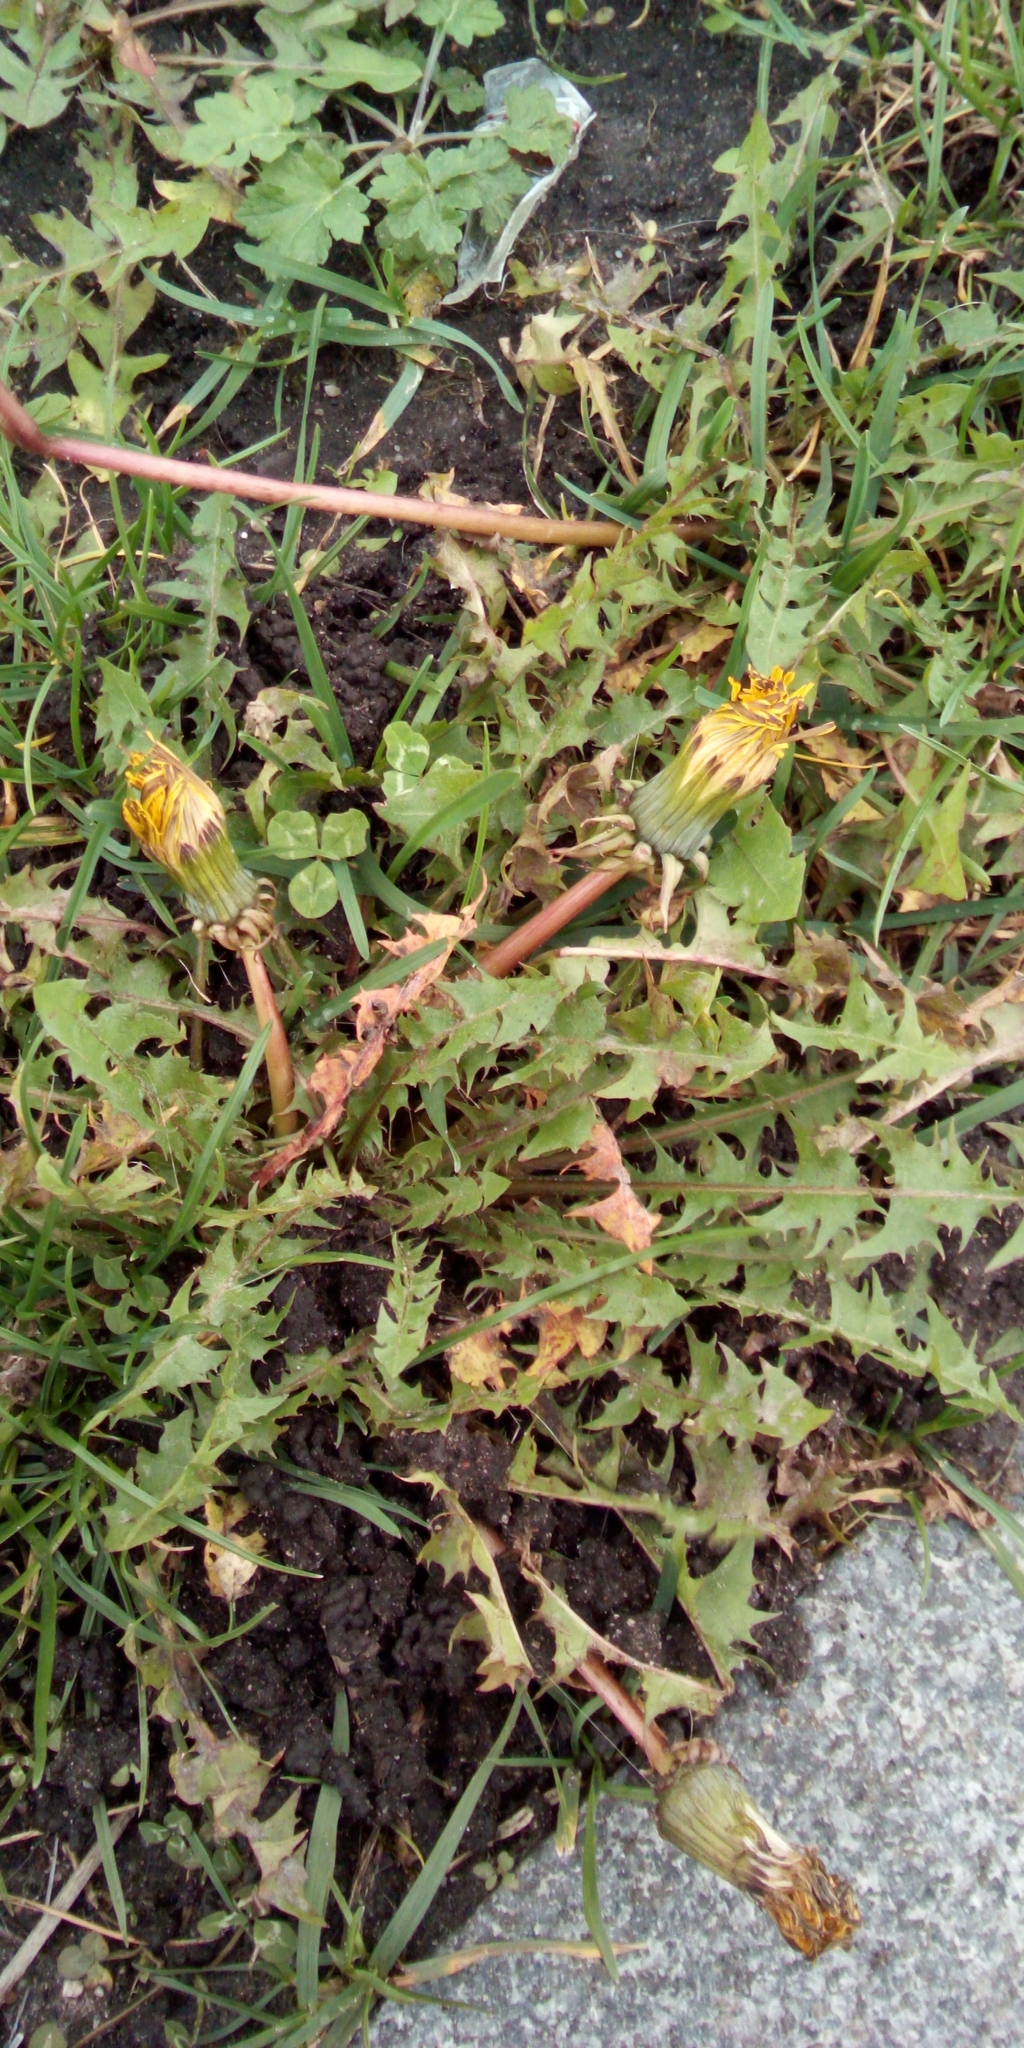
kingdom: Plantae
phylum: Tracheophyta
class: Magnoliopsida
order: Asterales
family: Asteraceae
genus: Taraxacum
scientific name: Taraxacum officinale
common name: Common dandelion
